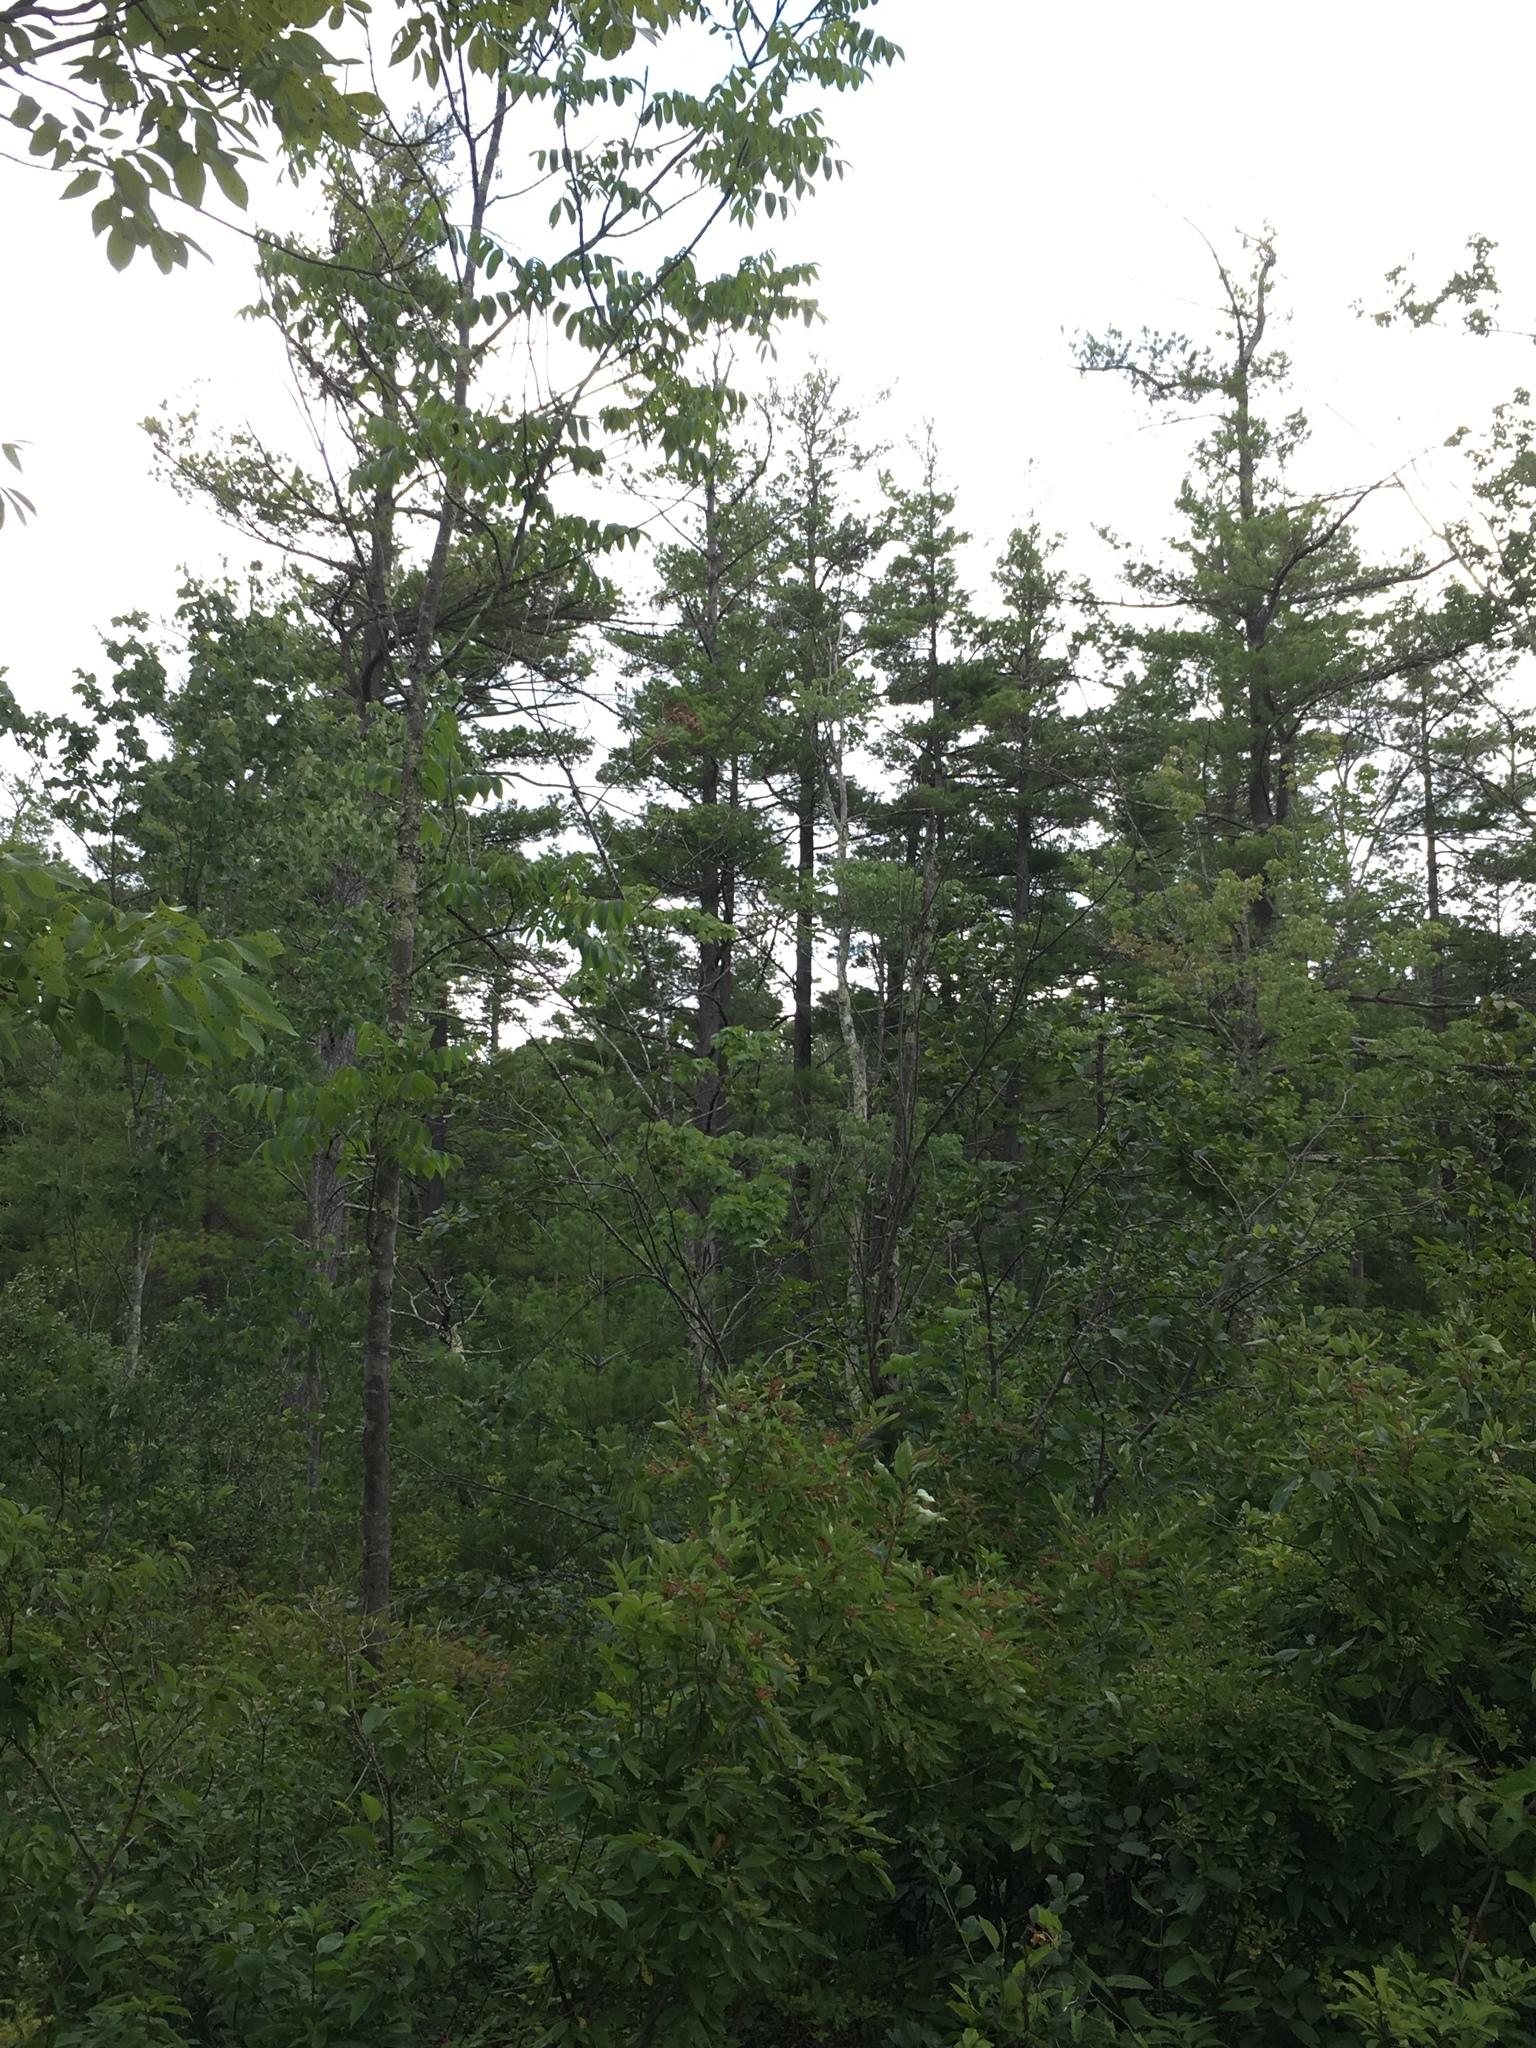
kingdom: Plantae
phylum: Tracheophyta
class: Pinopsida
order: Pinales
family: Pinaceae
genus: Pinus
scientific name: Pinus strobus
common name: Weymouth pine
